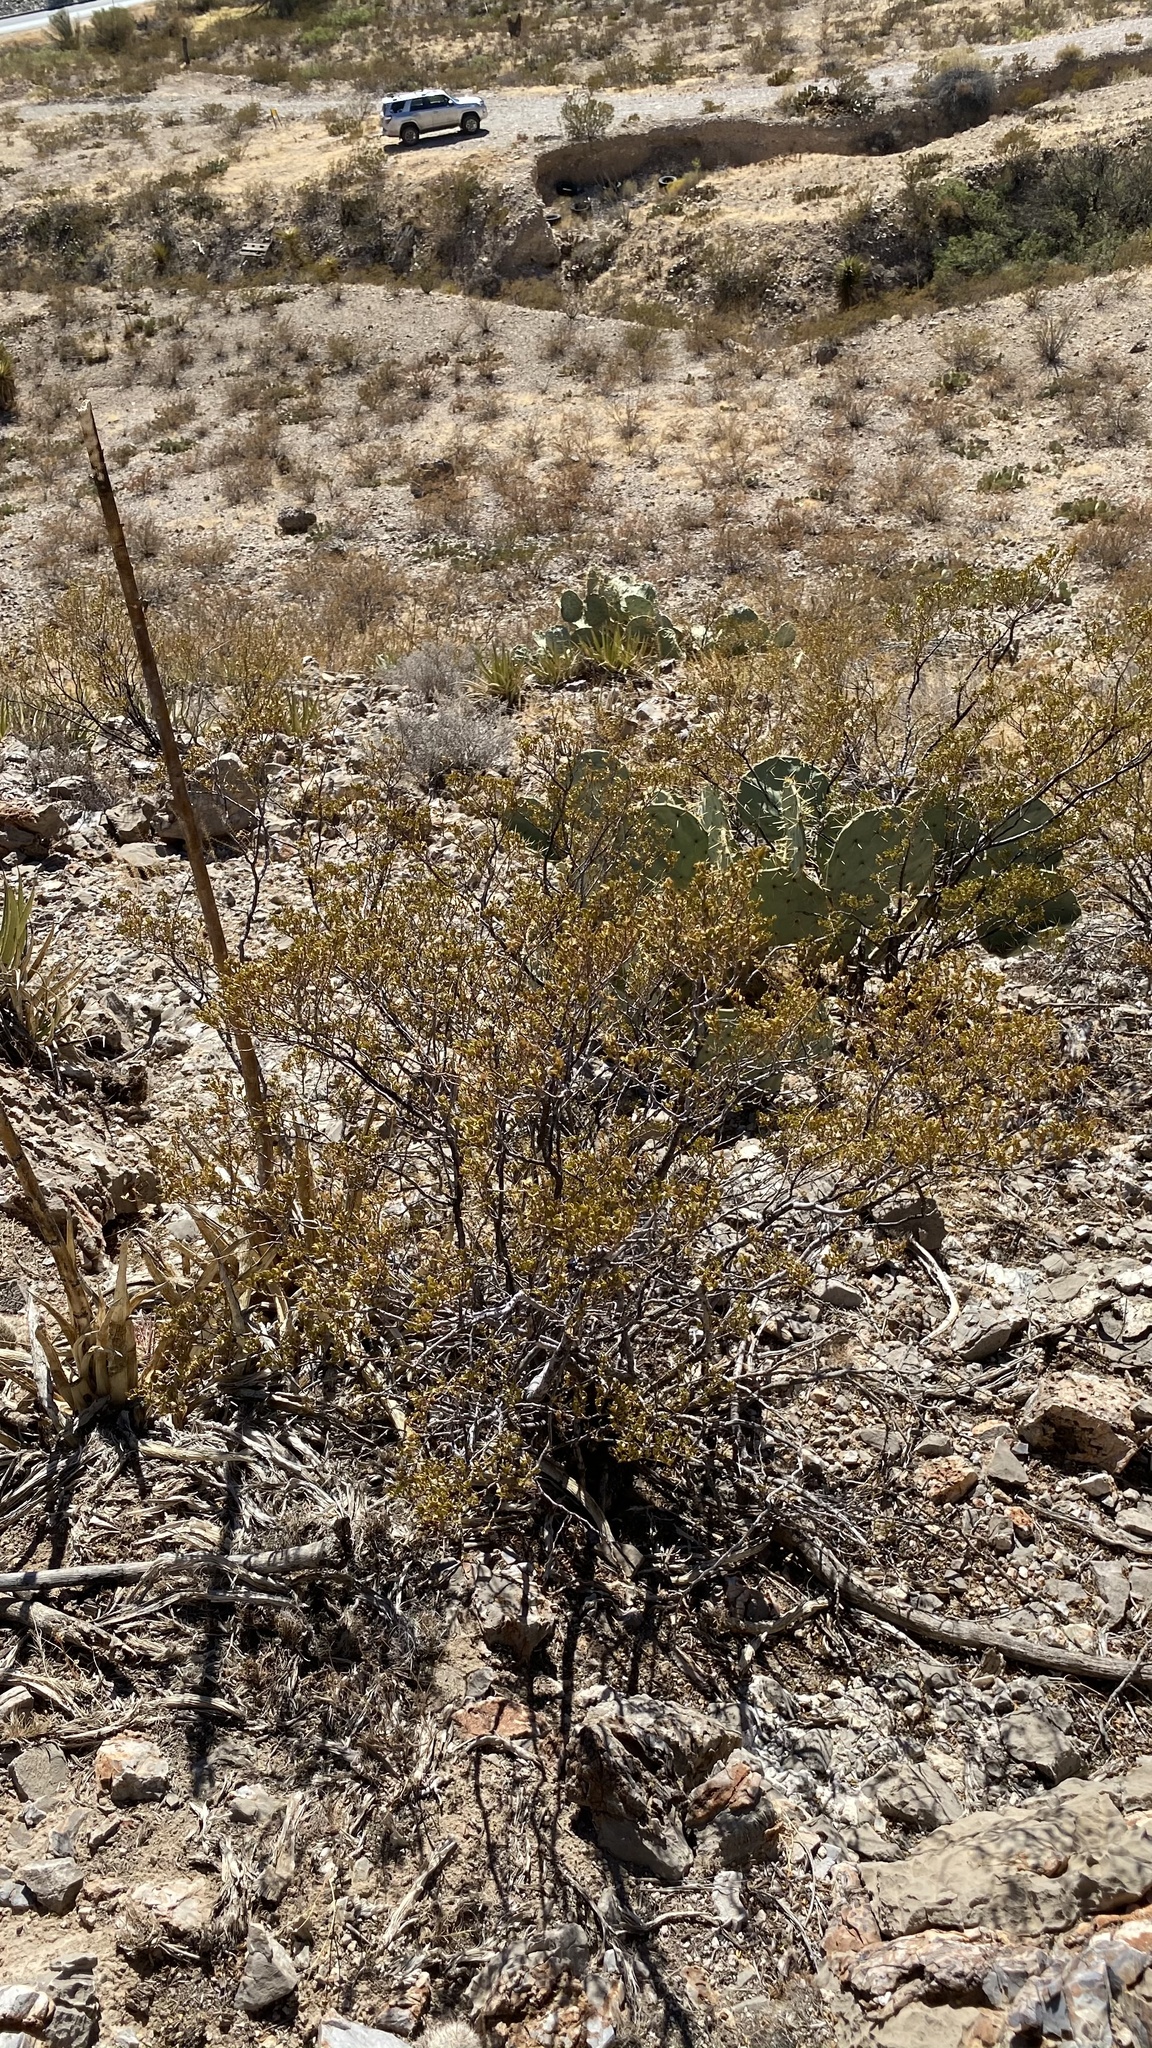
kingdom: Plantae
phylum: Tracheophyta
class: Magnoliopsida
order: Zygophyllales
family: Zygophyllaceae
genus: Larrea
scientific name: Larrea tridentata
